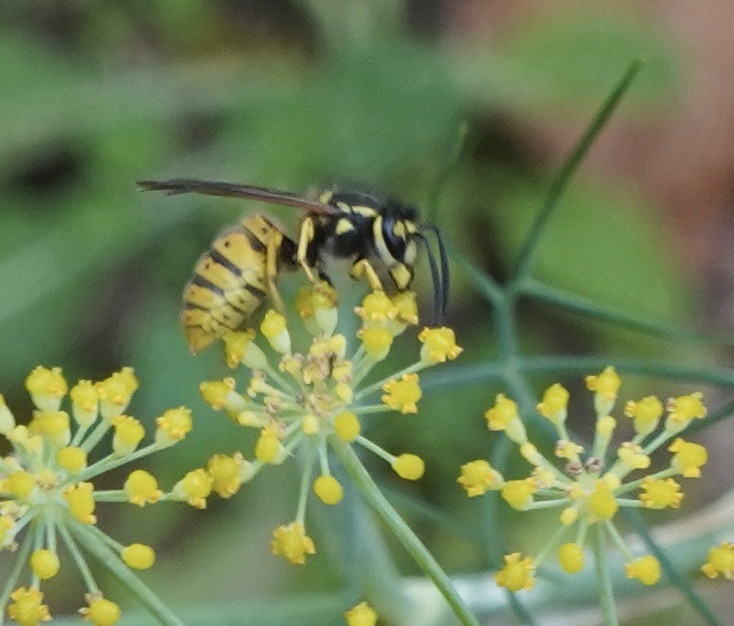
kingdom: Animalia
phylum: Arthropoda
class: Insecta
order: Hymenoptera
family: Vespidae
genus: Vespula
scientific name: Vespula germanica
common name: German wasp
